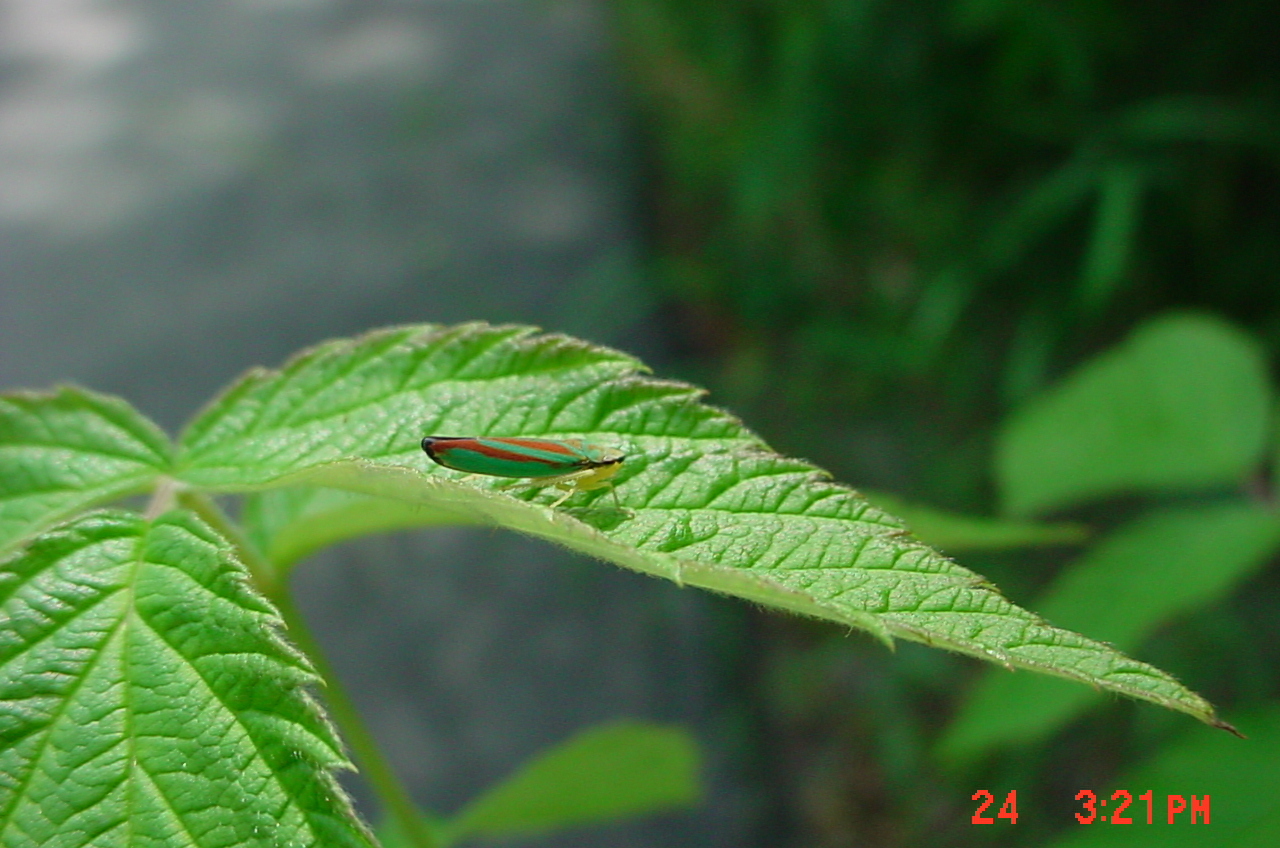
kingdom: Animalia
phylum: Arthropoda
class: Insecta
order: Hemiptera
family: Cicadellidae
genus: Graphocephala
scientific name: Graphocephala coccinea
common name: Candy-striped leafhopper
